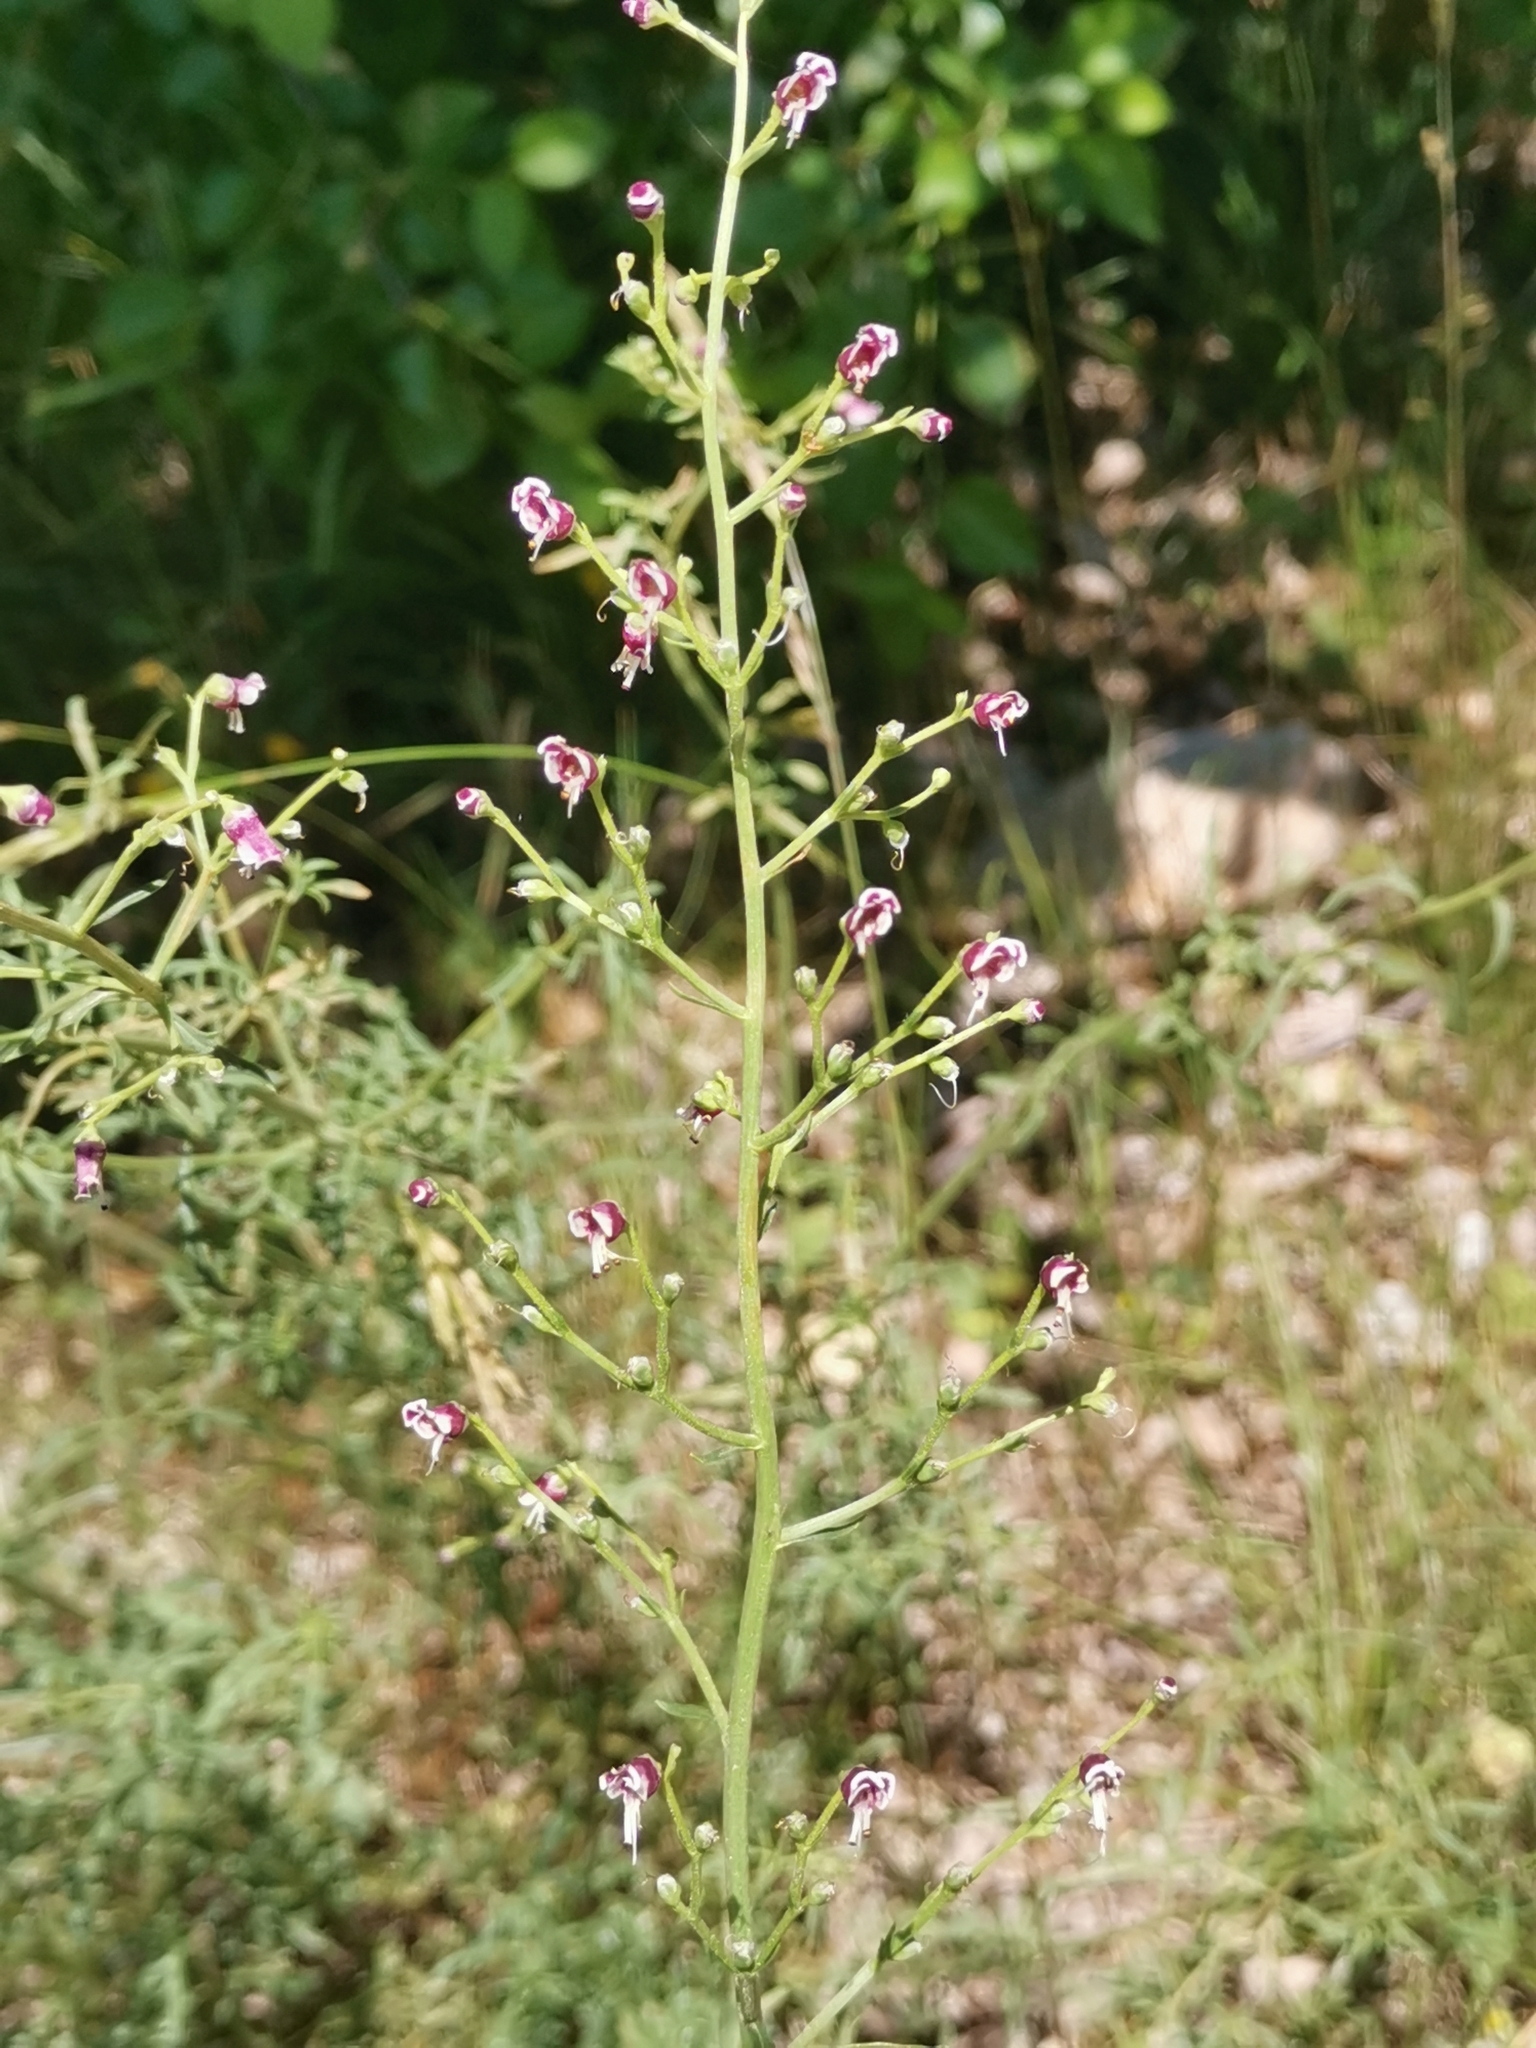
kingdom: Plantae
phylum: Tracheophyta
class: Magnoliopsida
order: Lamiales
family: Scrophulariaceae
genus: Scrophularia
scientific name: Scrophularia canina
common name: French figwort
